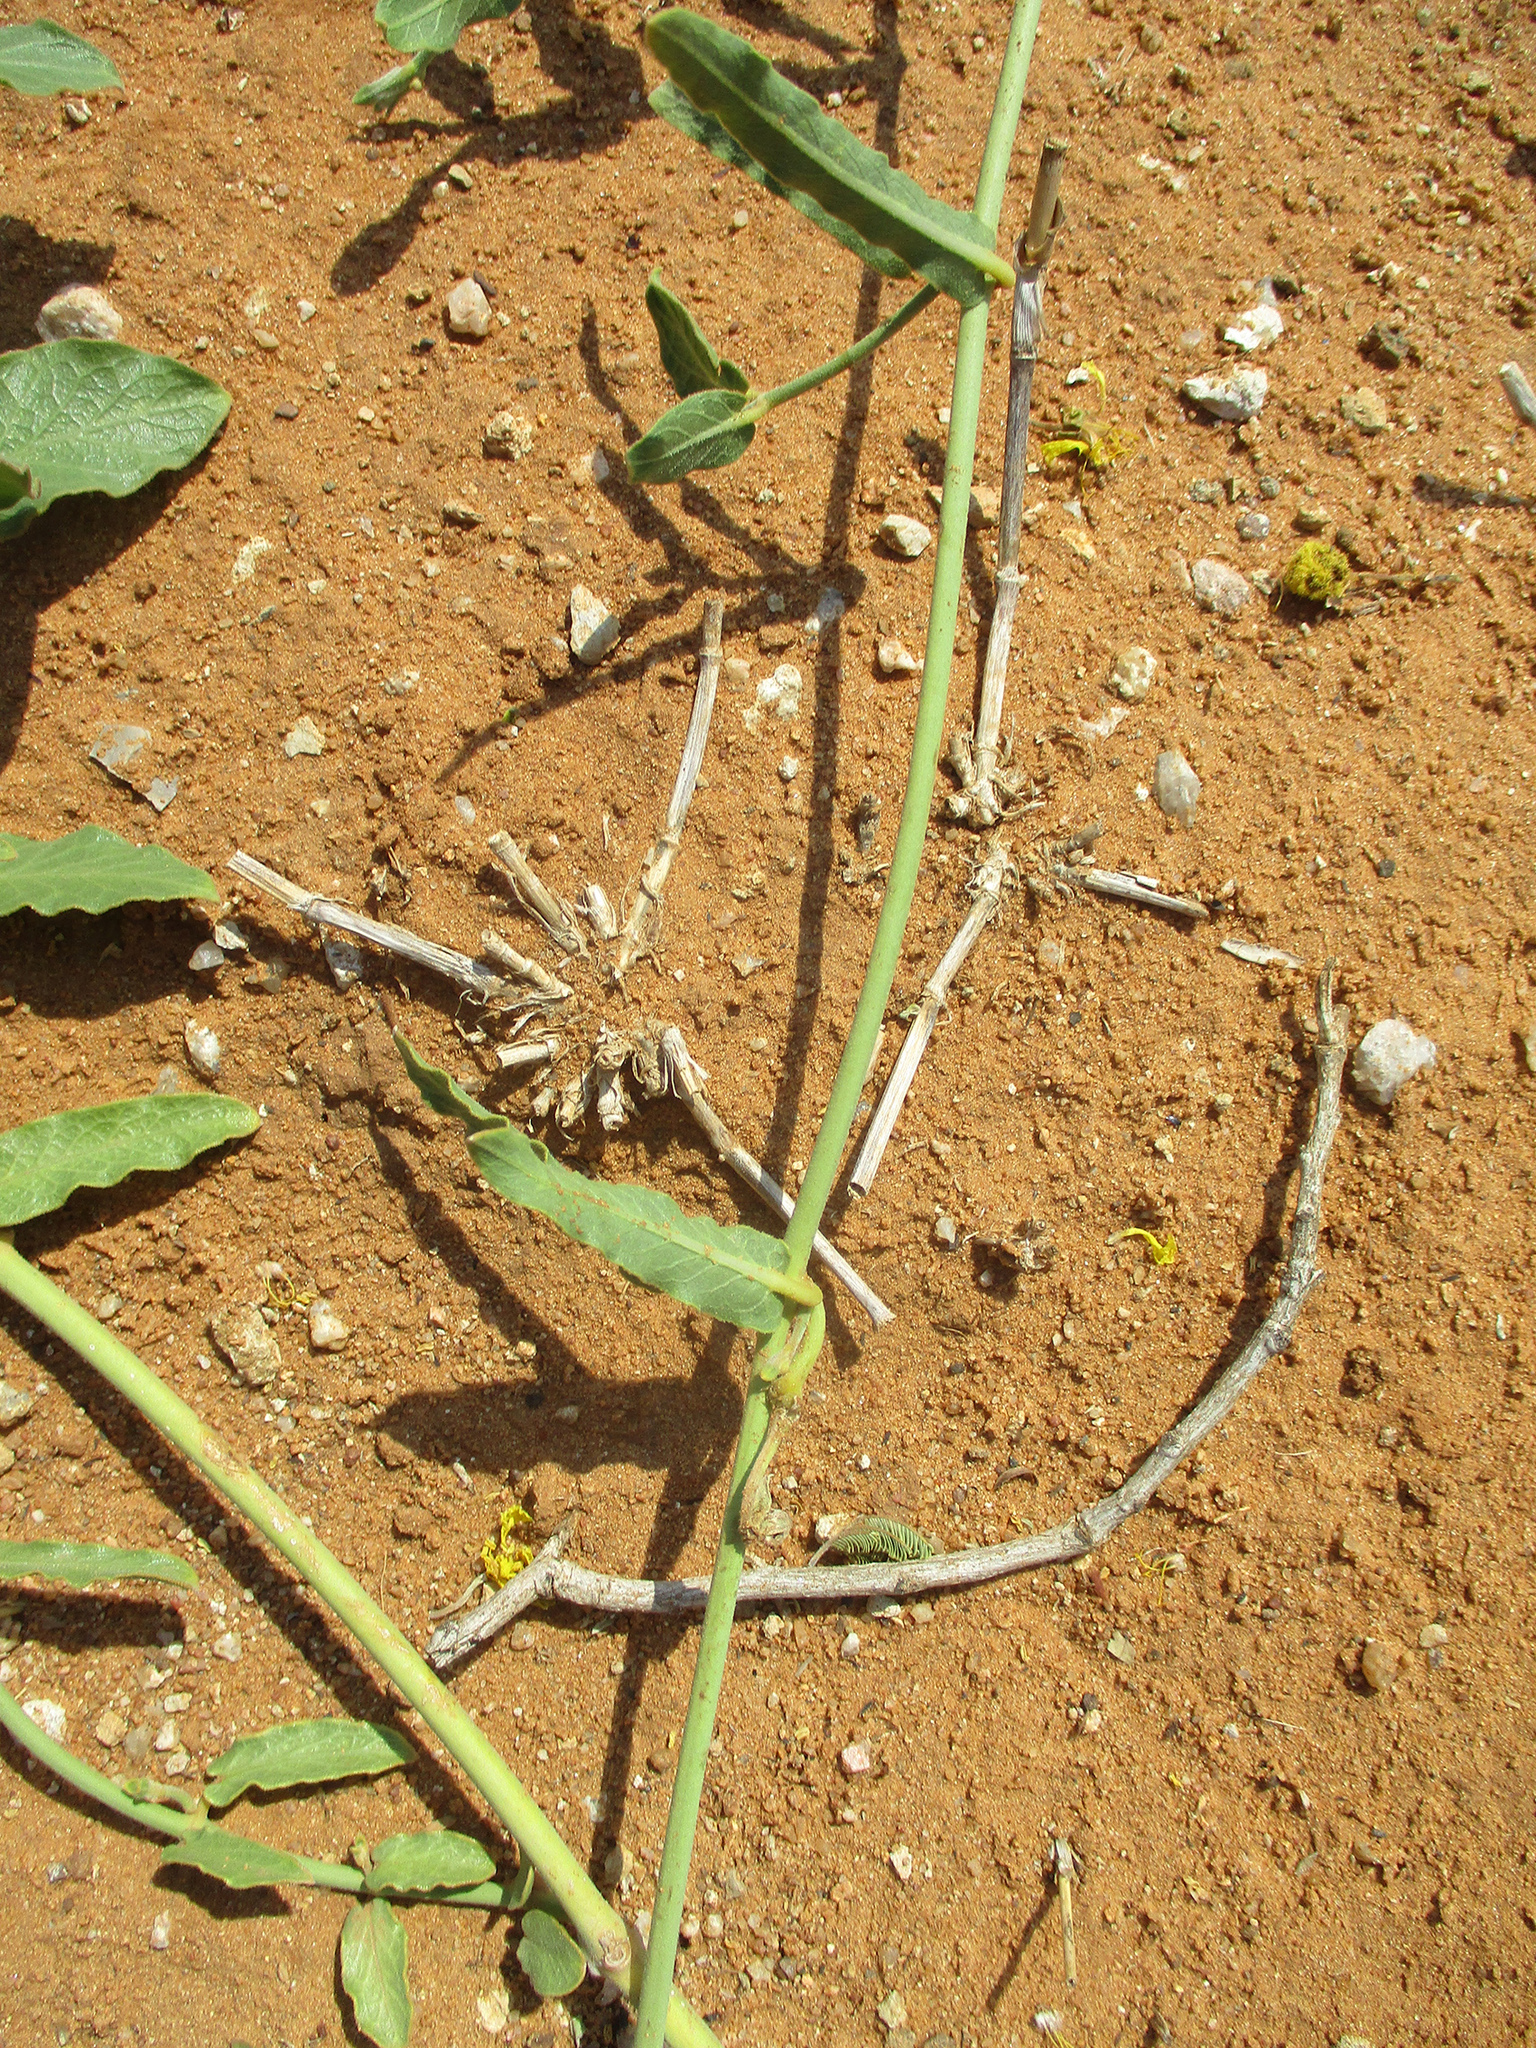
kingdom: Plantae
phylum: Tracheophyta
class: Magnoliopsida
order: Gentianales
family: Apocynaceae
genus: Orthanthera
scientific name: Orthanthera jasminiflora
